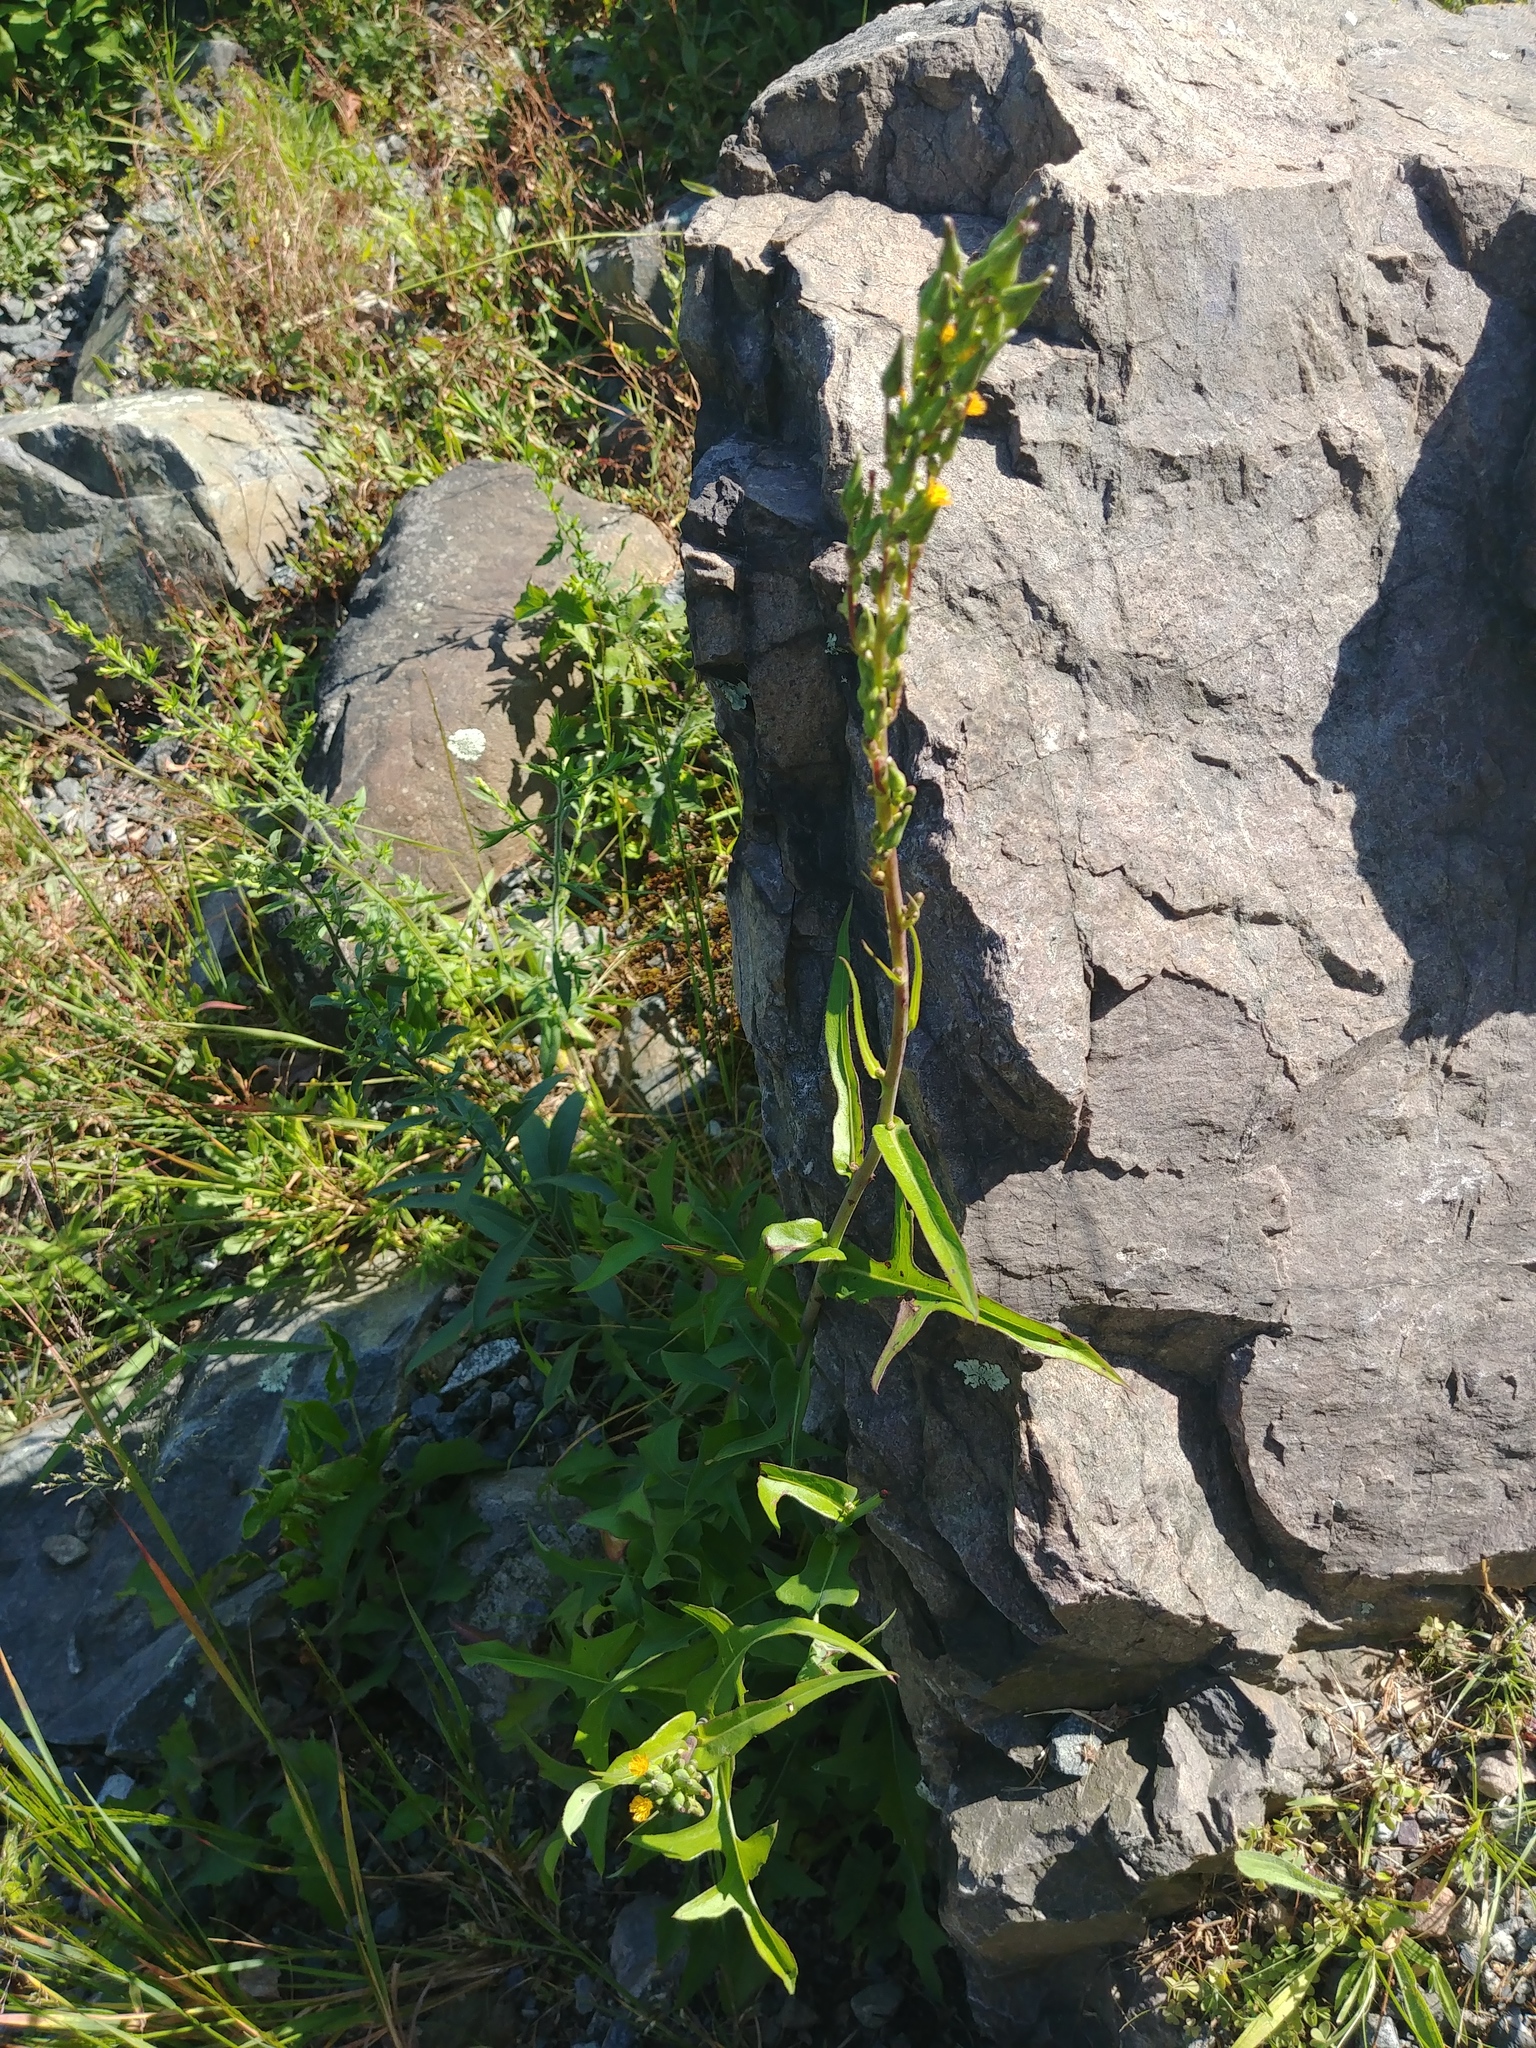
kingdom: Plantae
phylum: Tracheophyta
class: Magnoliopsida
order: Asterales
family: Asteraceae
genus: Lactuca
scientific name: Lactuca canadensis
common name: Canada lettuce
